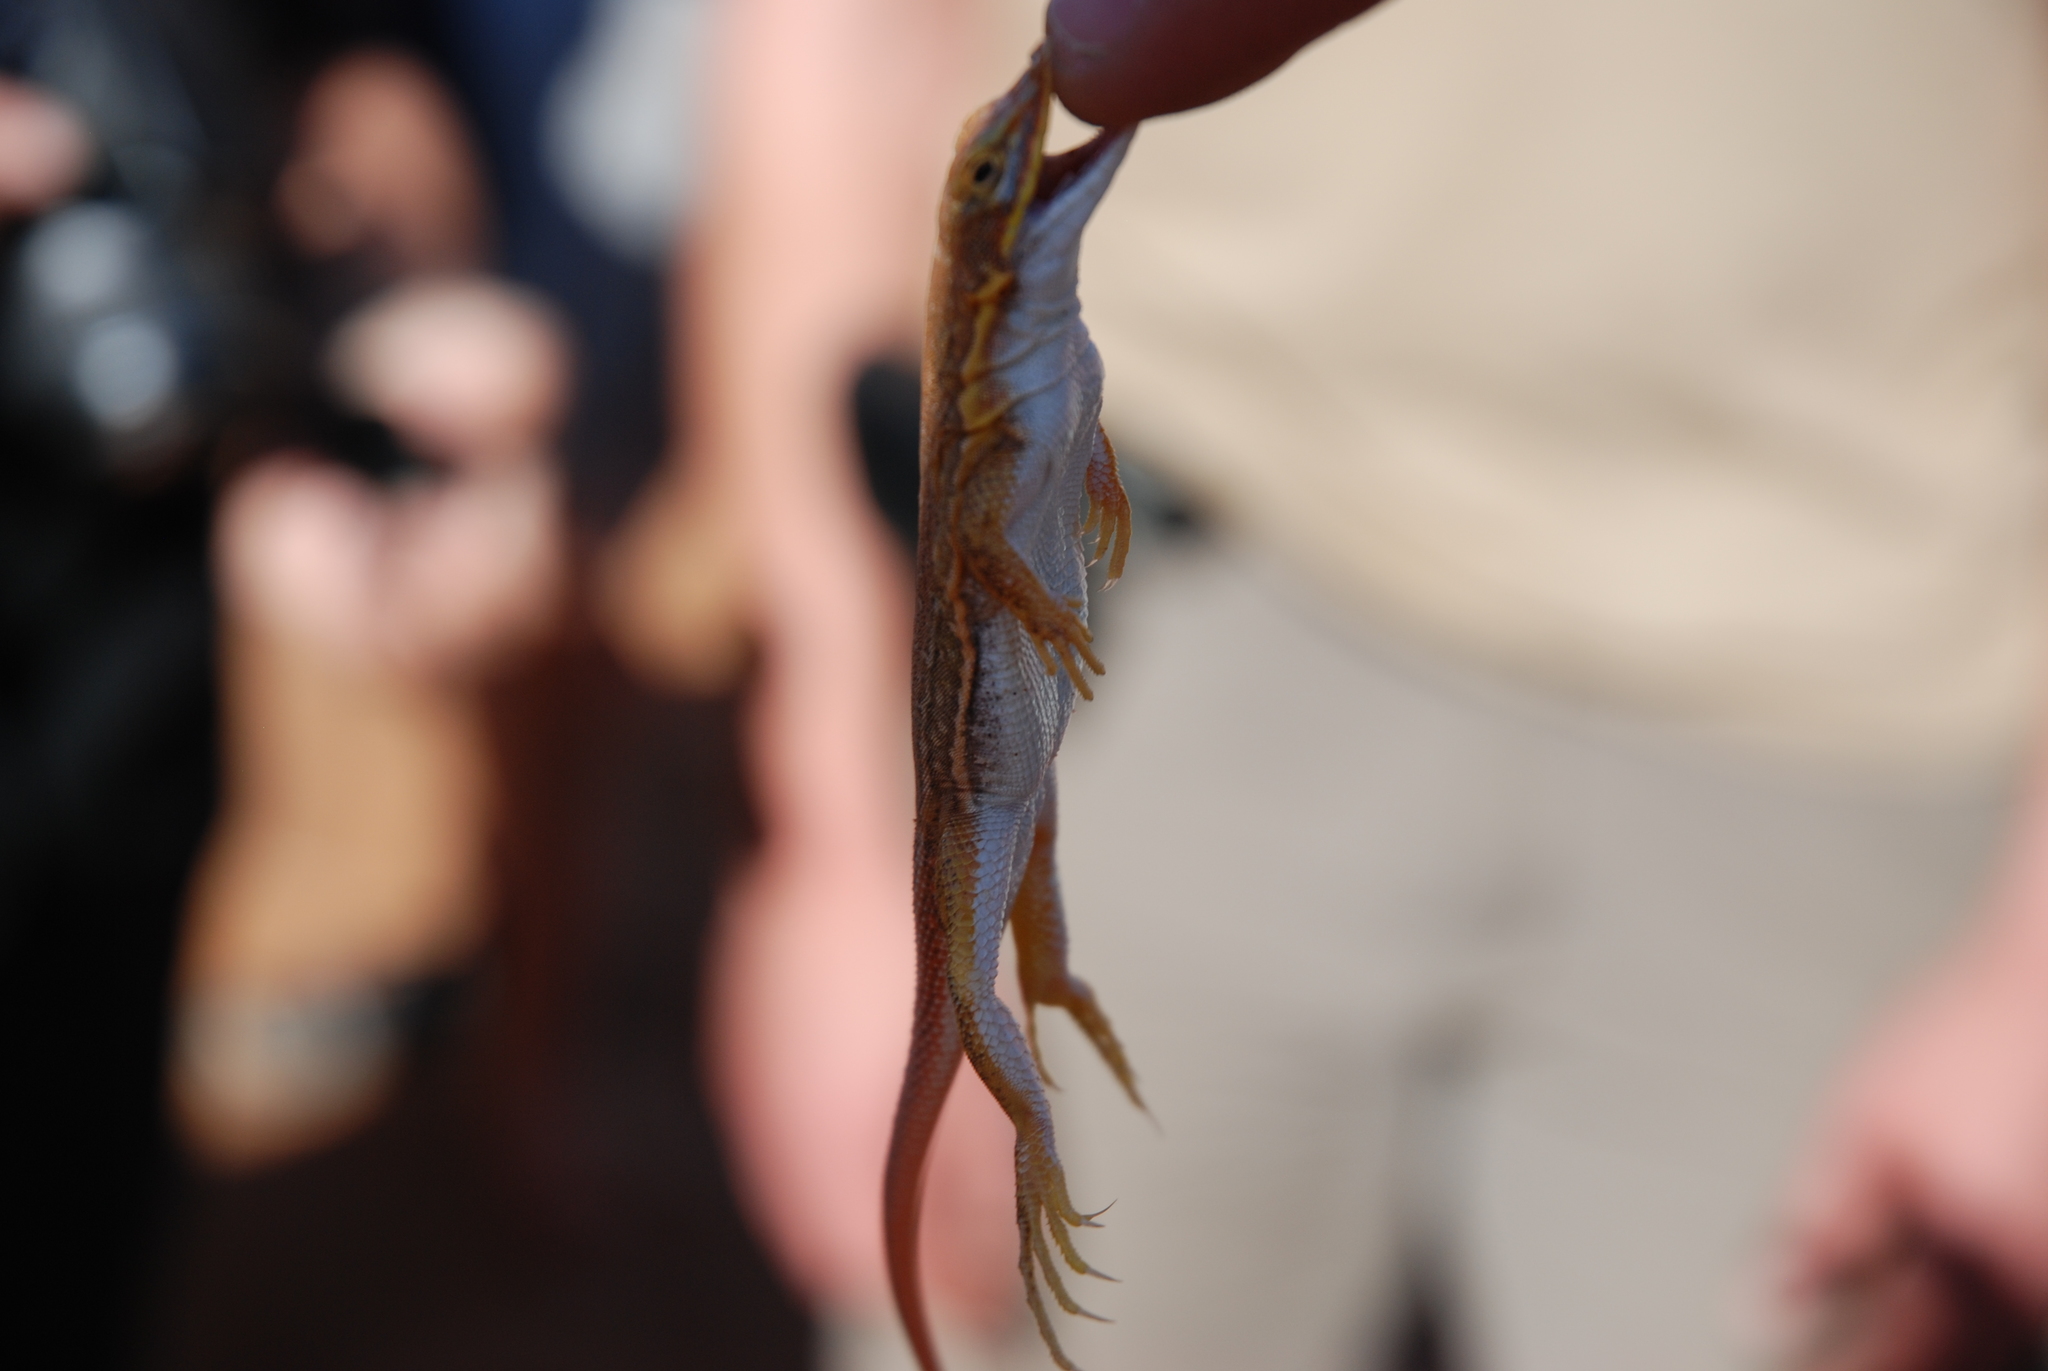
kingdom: Animalia
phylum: Chordata
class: Squamata
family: Lacertidae
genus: Meroles
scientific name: Meroles cuneirostris
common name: Wedge-snouted desert lizard
